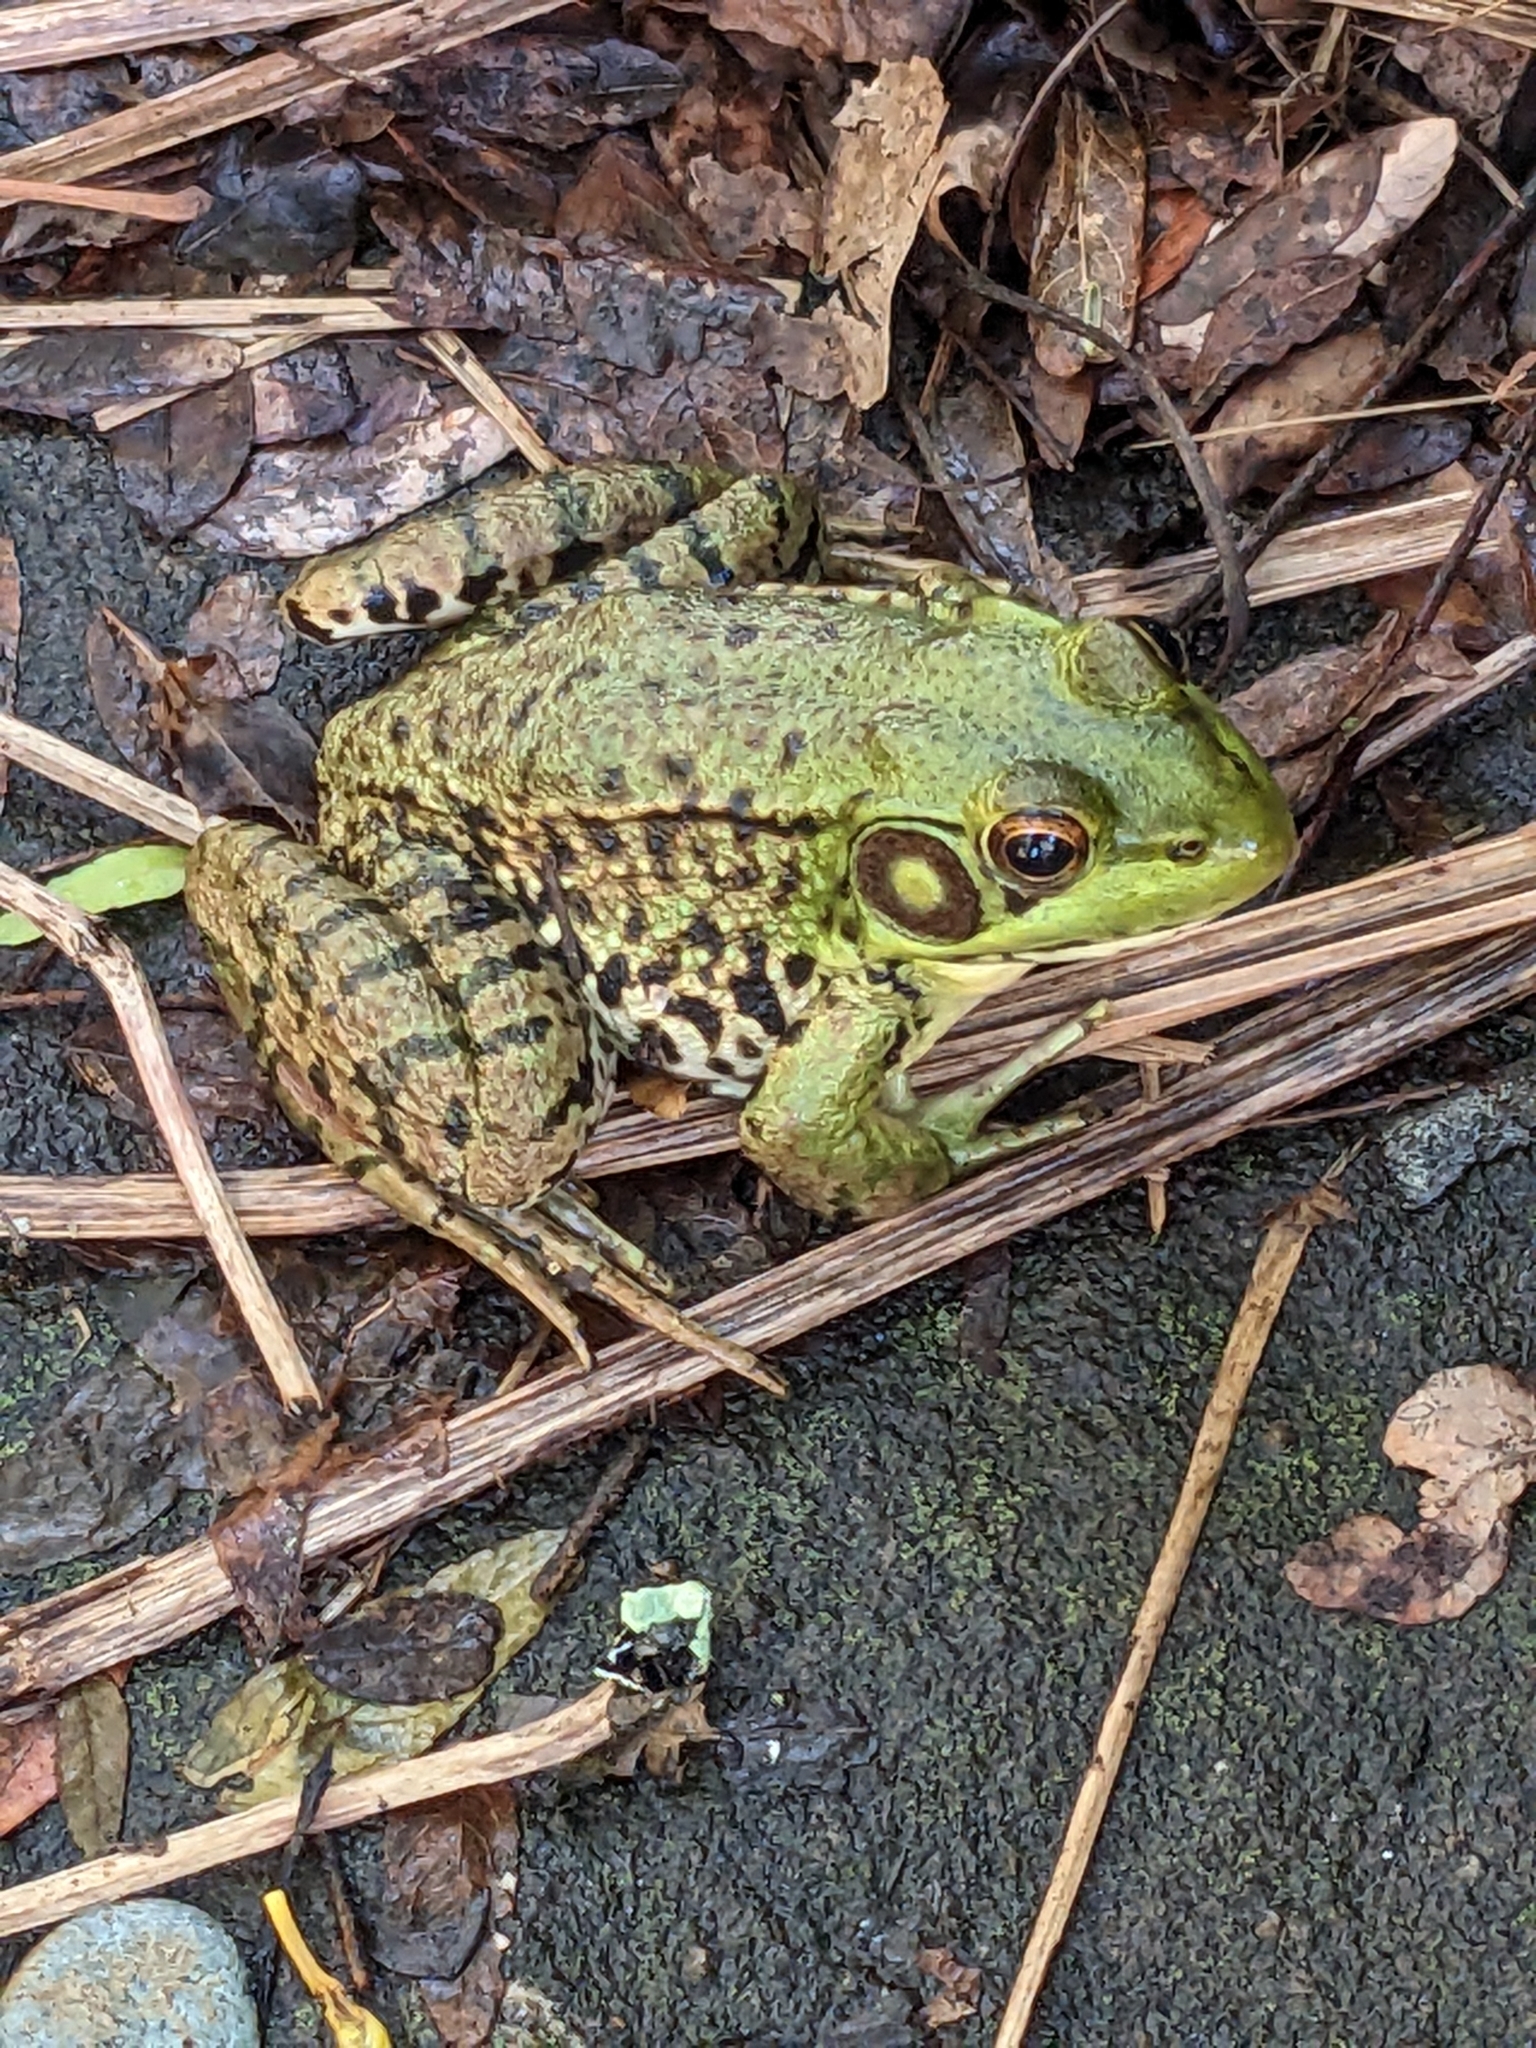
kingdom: Animalia
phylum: Chordata
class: Amphibia
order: Anura
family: Ranidae
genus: Lithobates
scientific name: Lithobates clamitans
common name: Green frog
